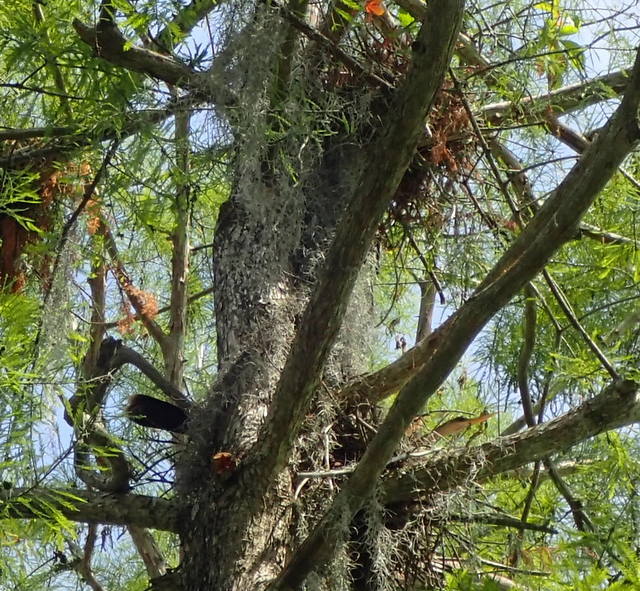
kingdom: Animalia
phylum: Chordata
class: Aves
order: Suliformes
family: Anhingidae
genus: Anhinga
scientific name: Anhinga anhinga
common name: Anhinga
